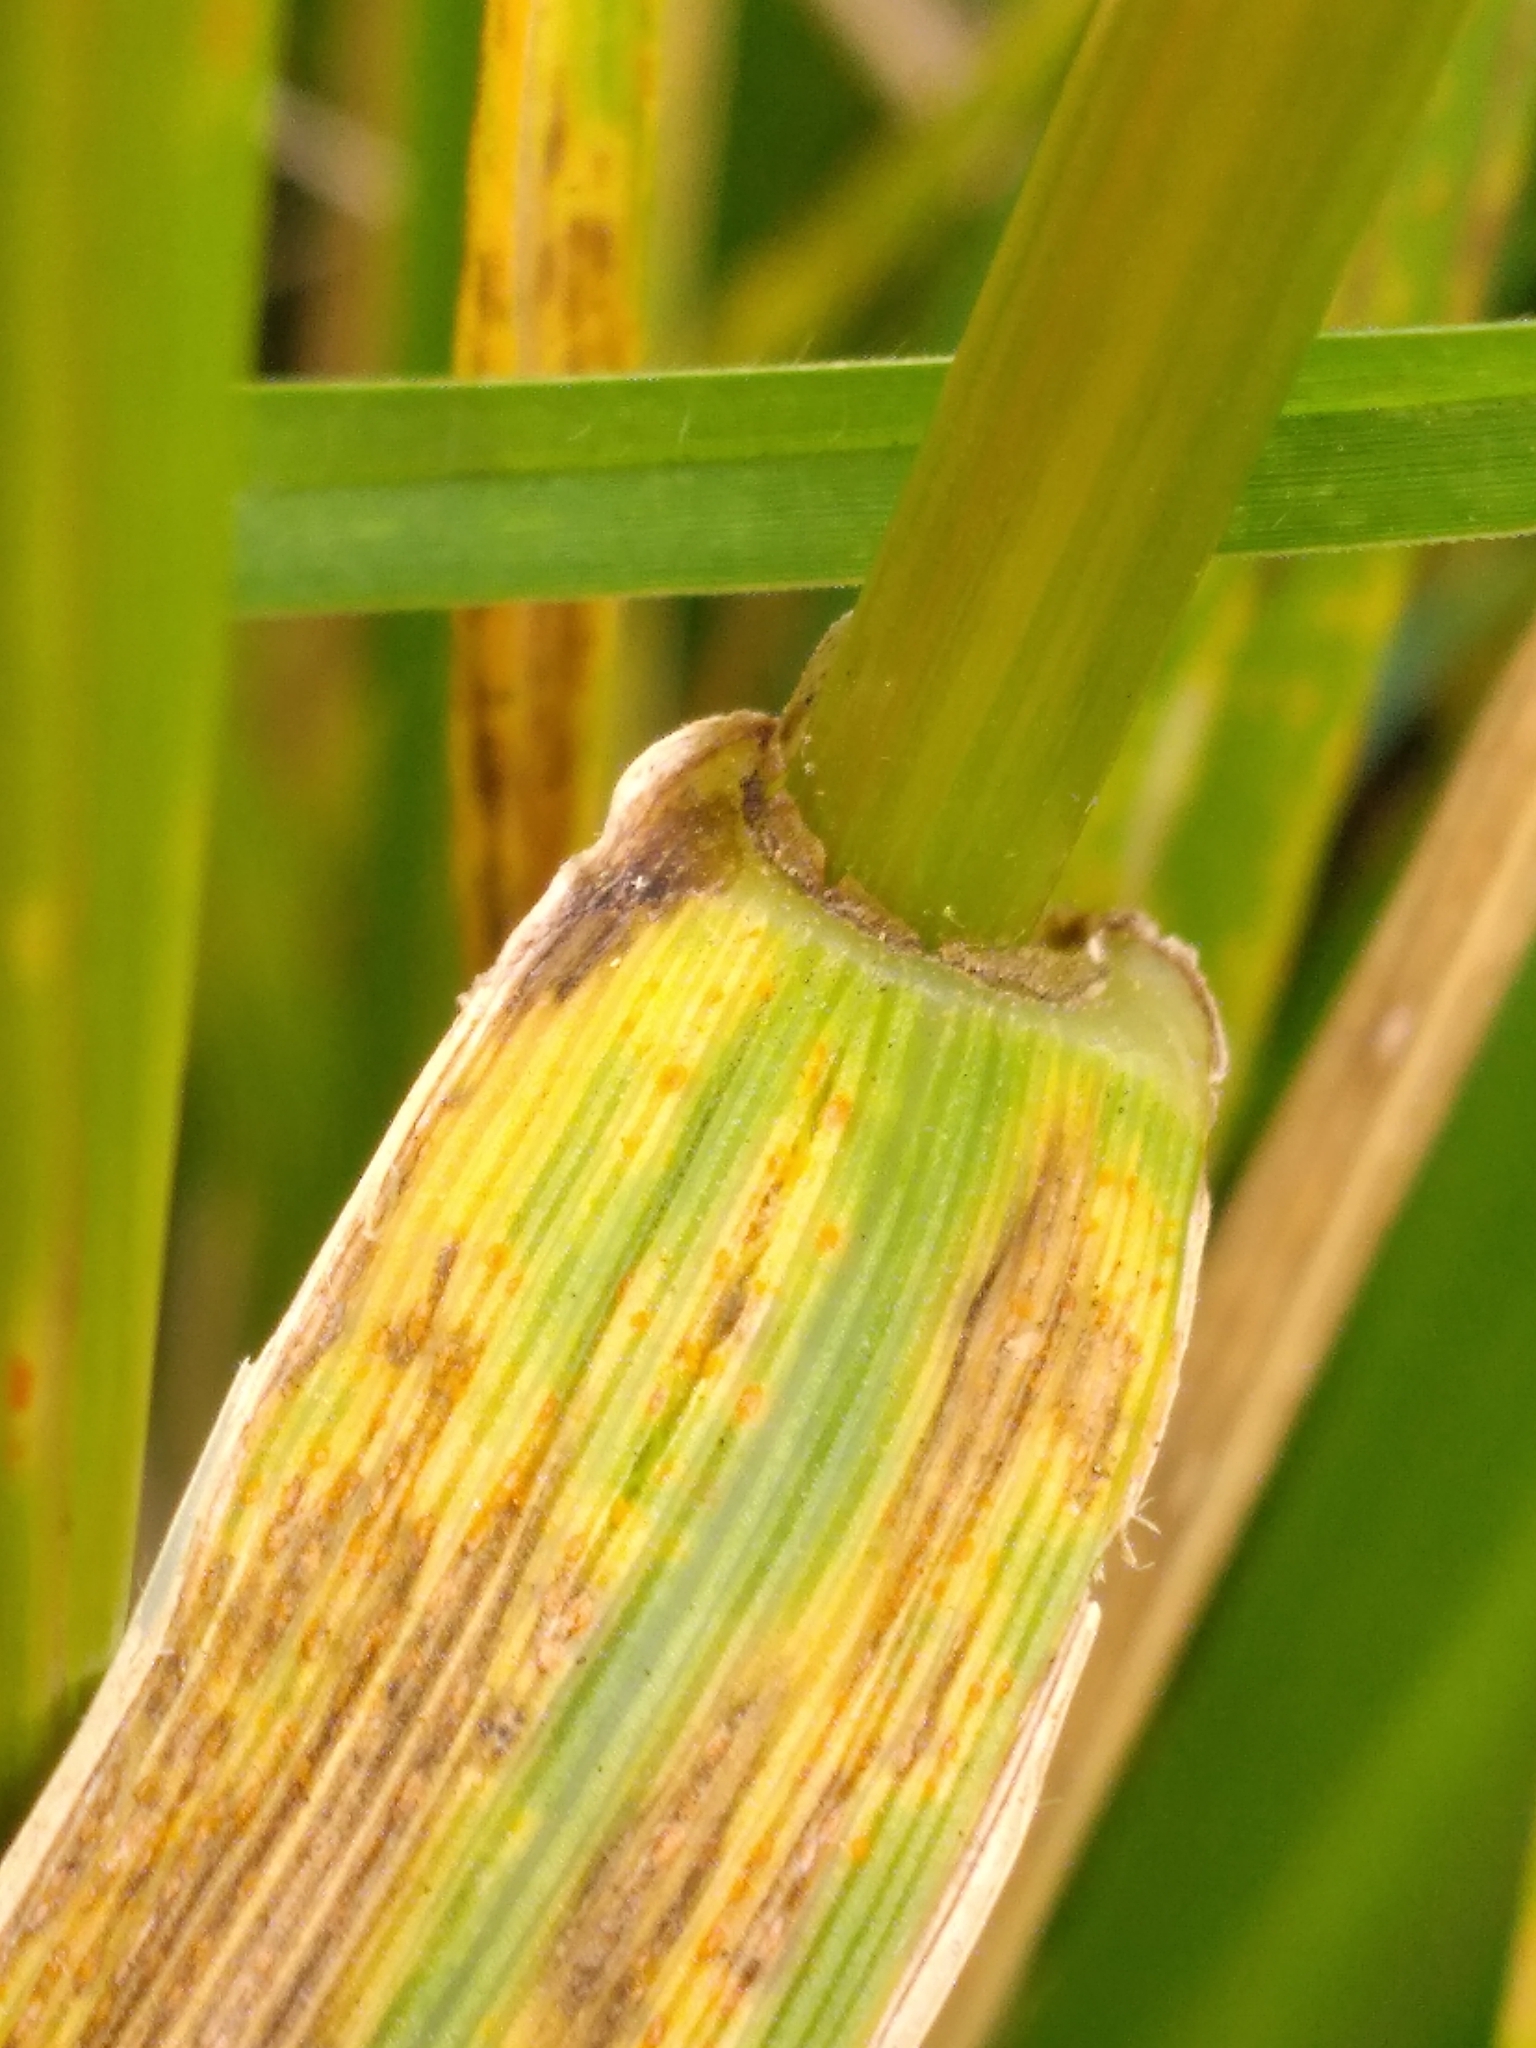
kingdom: Plantae
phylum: Tracheophyta
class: Liliopsida
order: Poales
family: Poaceae
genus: Lolium
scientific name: Lolium arundinaceum
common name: Reed fescue
